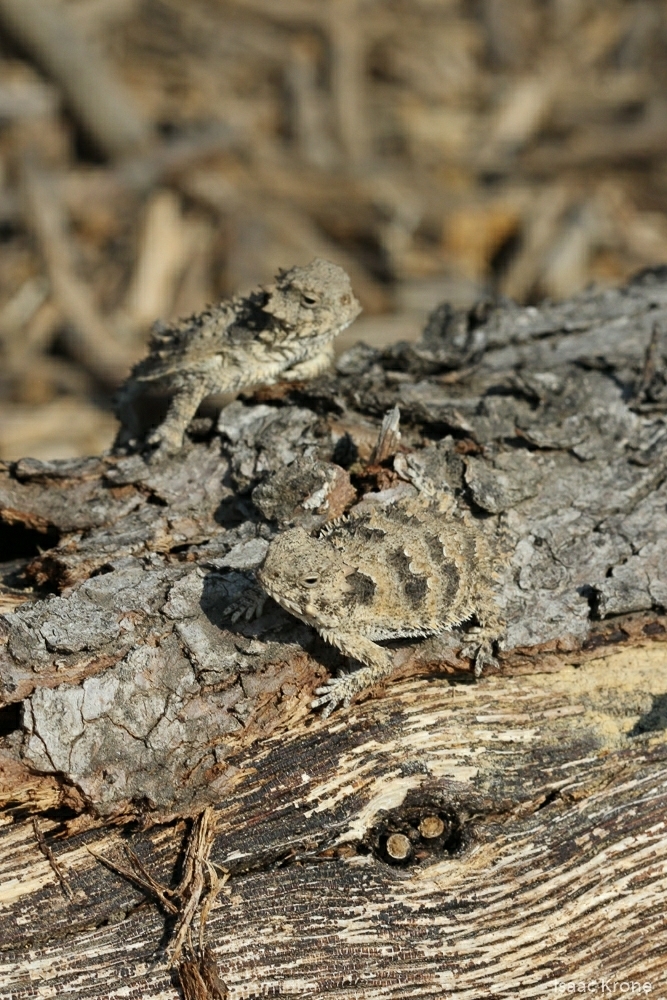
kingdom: Animalia
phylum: Chordata
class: Squamata
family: Phrynosomatidae
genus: Phrynosoma
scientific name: Phrynosoma blainvillii
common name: San diego horned lizard
